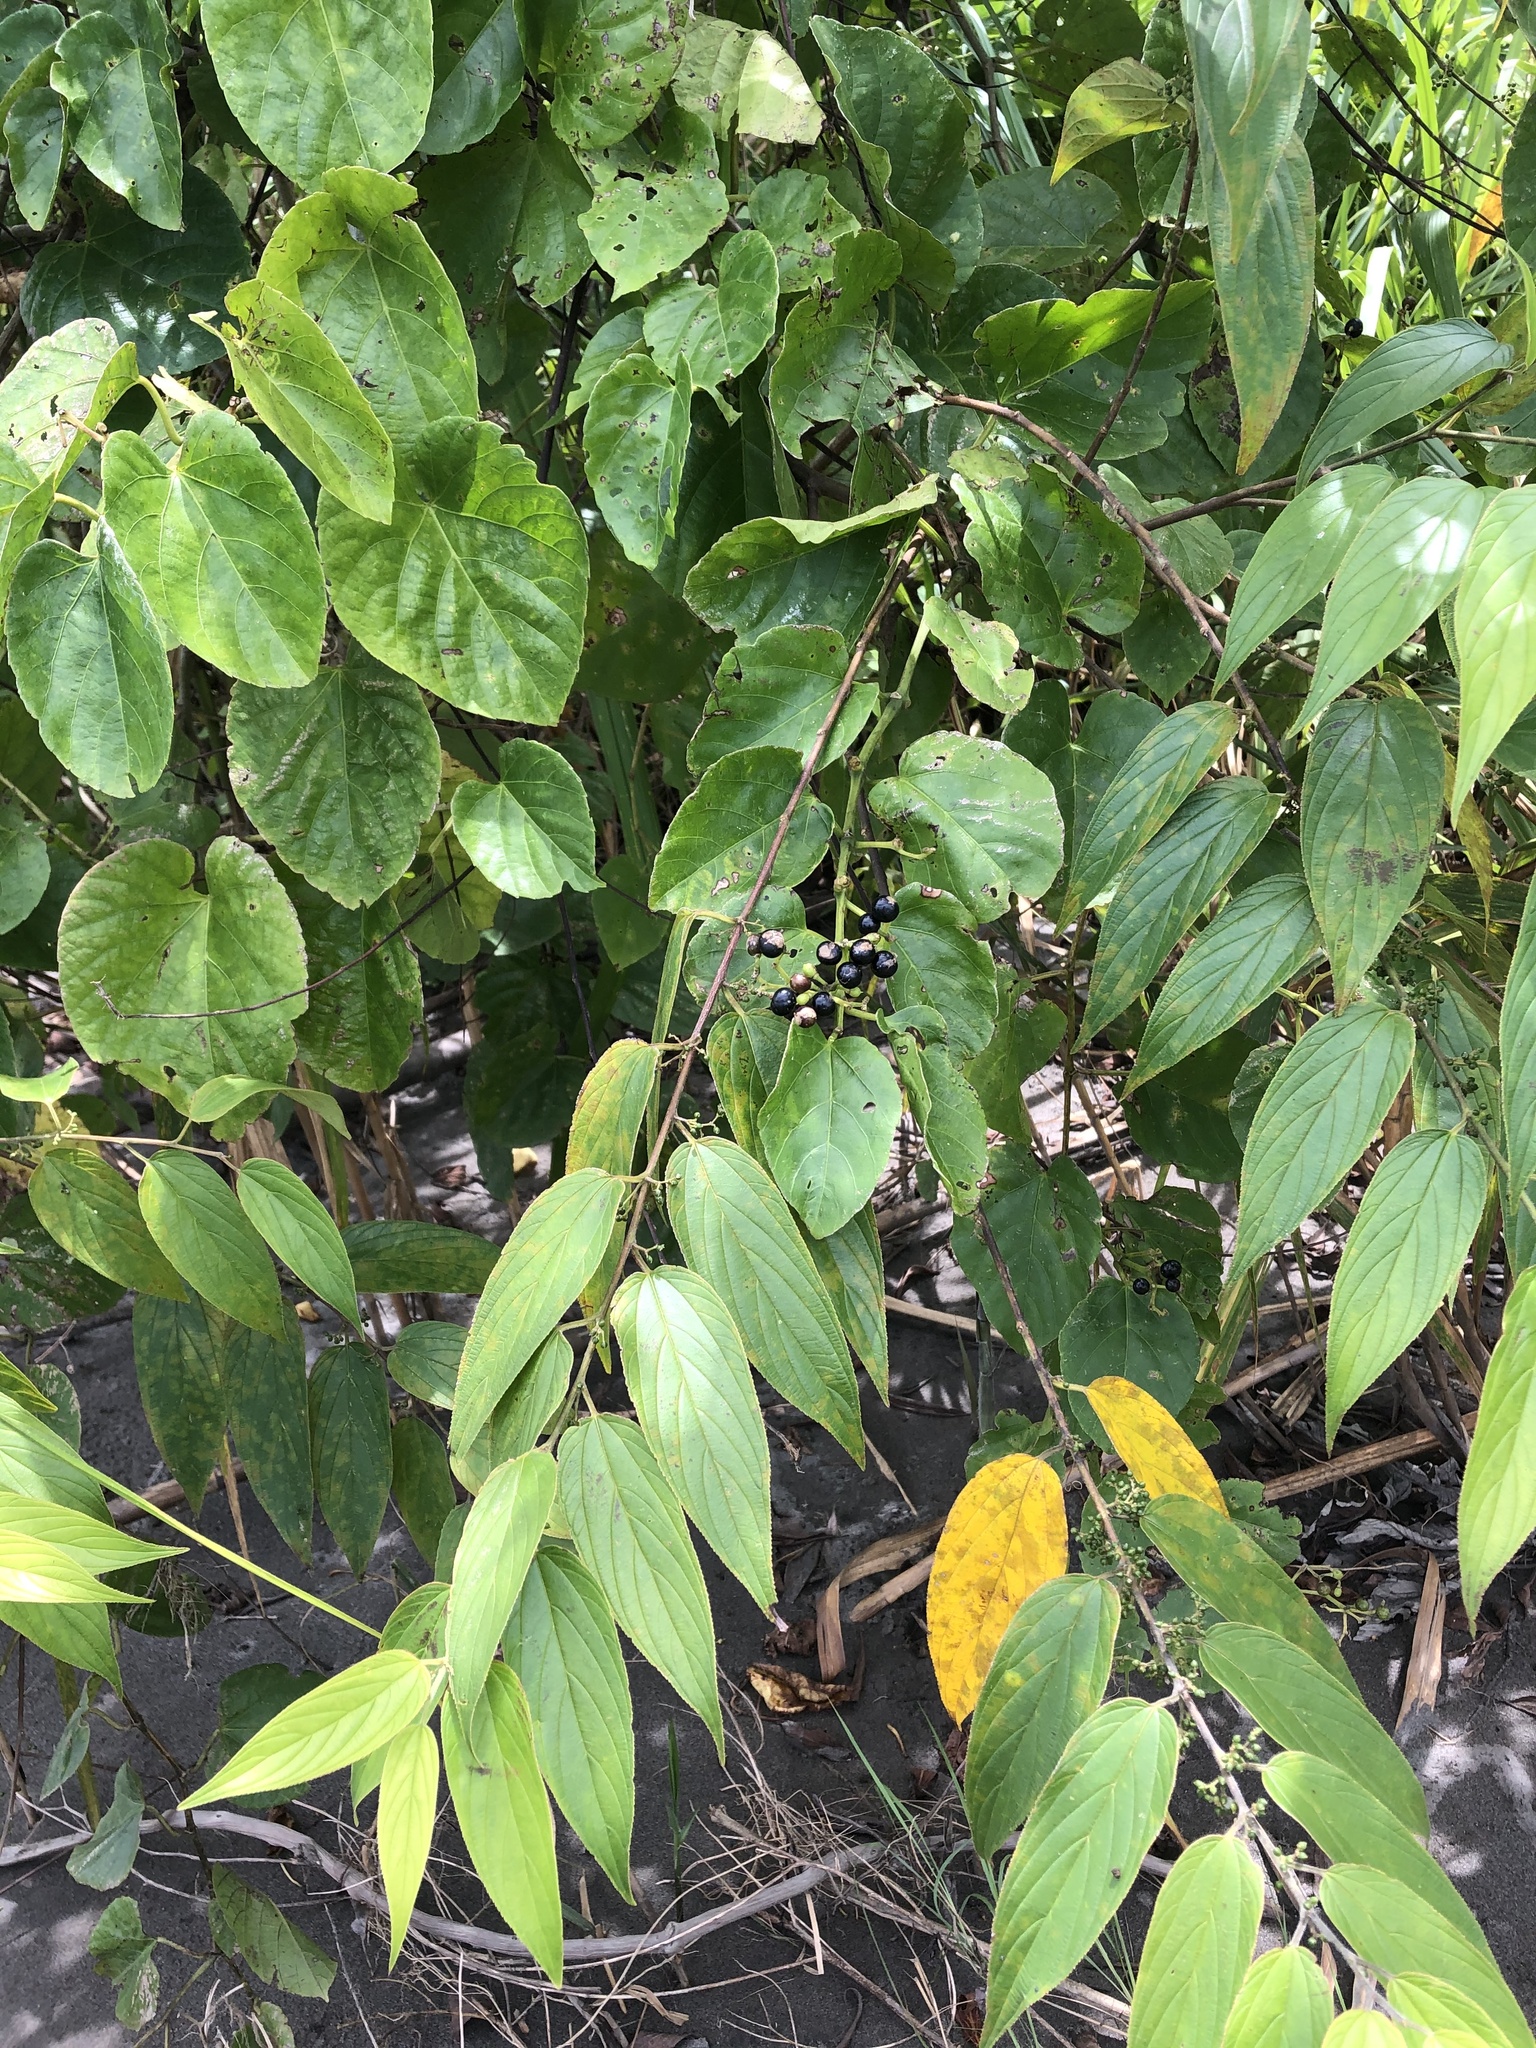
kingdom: Plantae
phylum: Tracheophyta
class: Magnoliopsida
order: Rosales
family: Cannabaceae
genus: Trema
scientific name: Trema micranthum
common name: Jamaican nettletree
